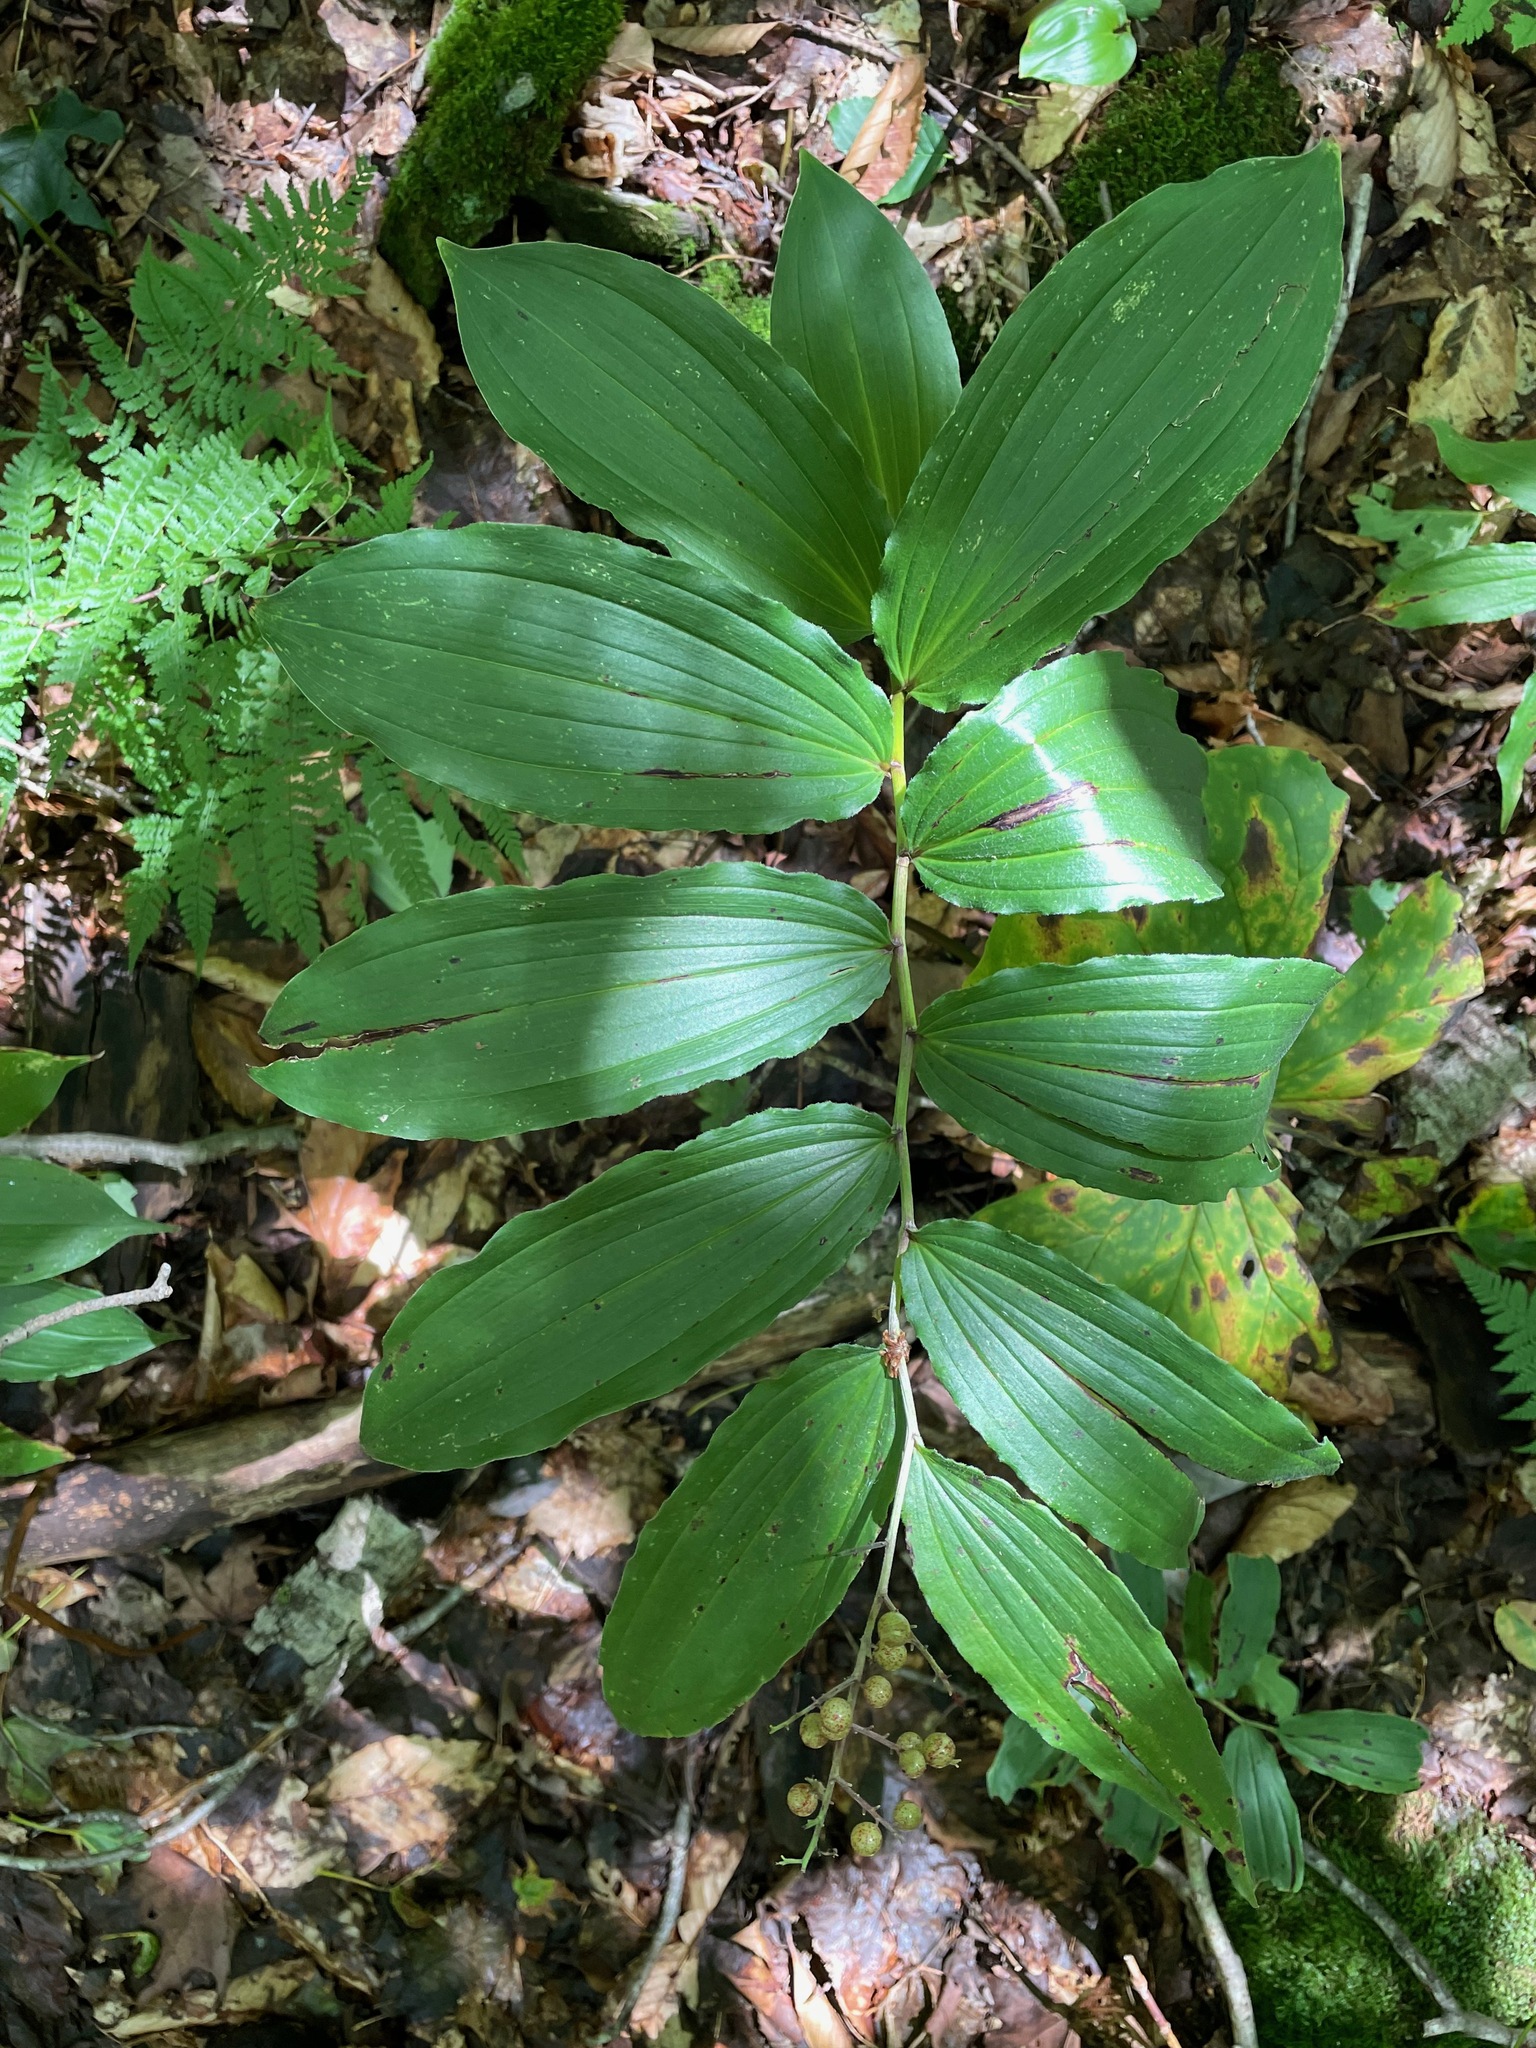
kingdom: Plantae
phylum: Tracheophyta
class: Liliopsida
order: Asparagales
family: Asparagaceae
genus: Maianthemum
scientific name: Maianthemum racemosum
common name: False spikenard
